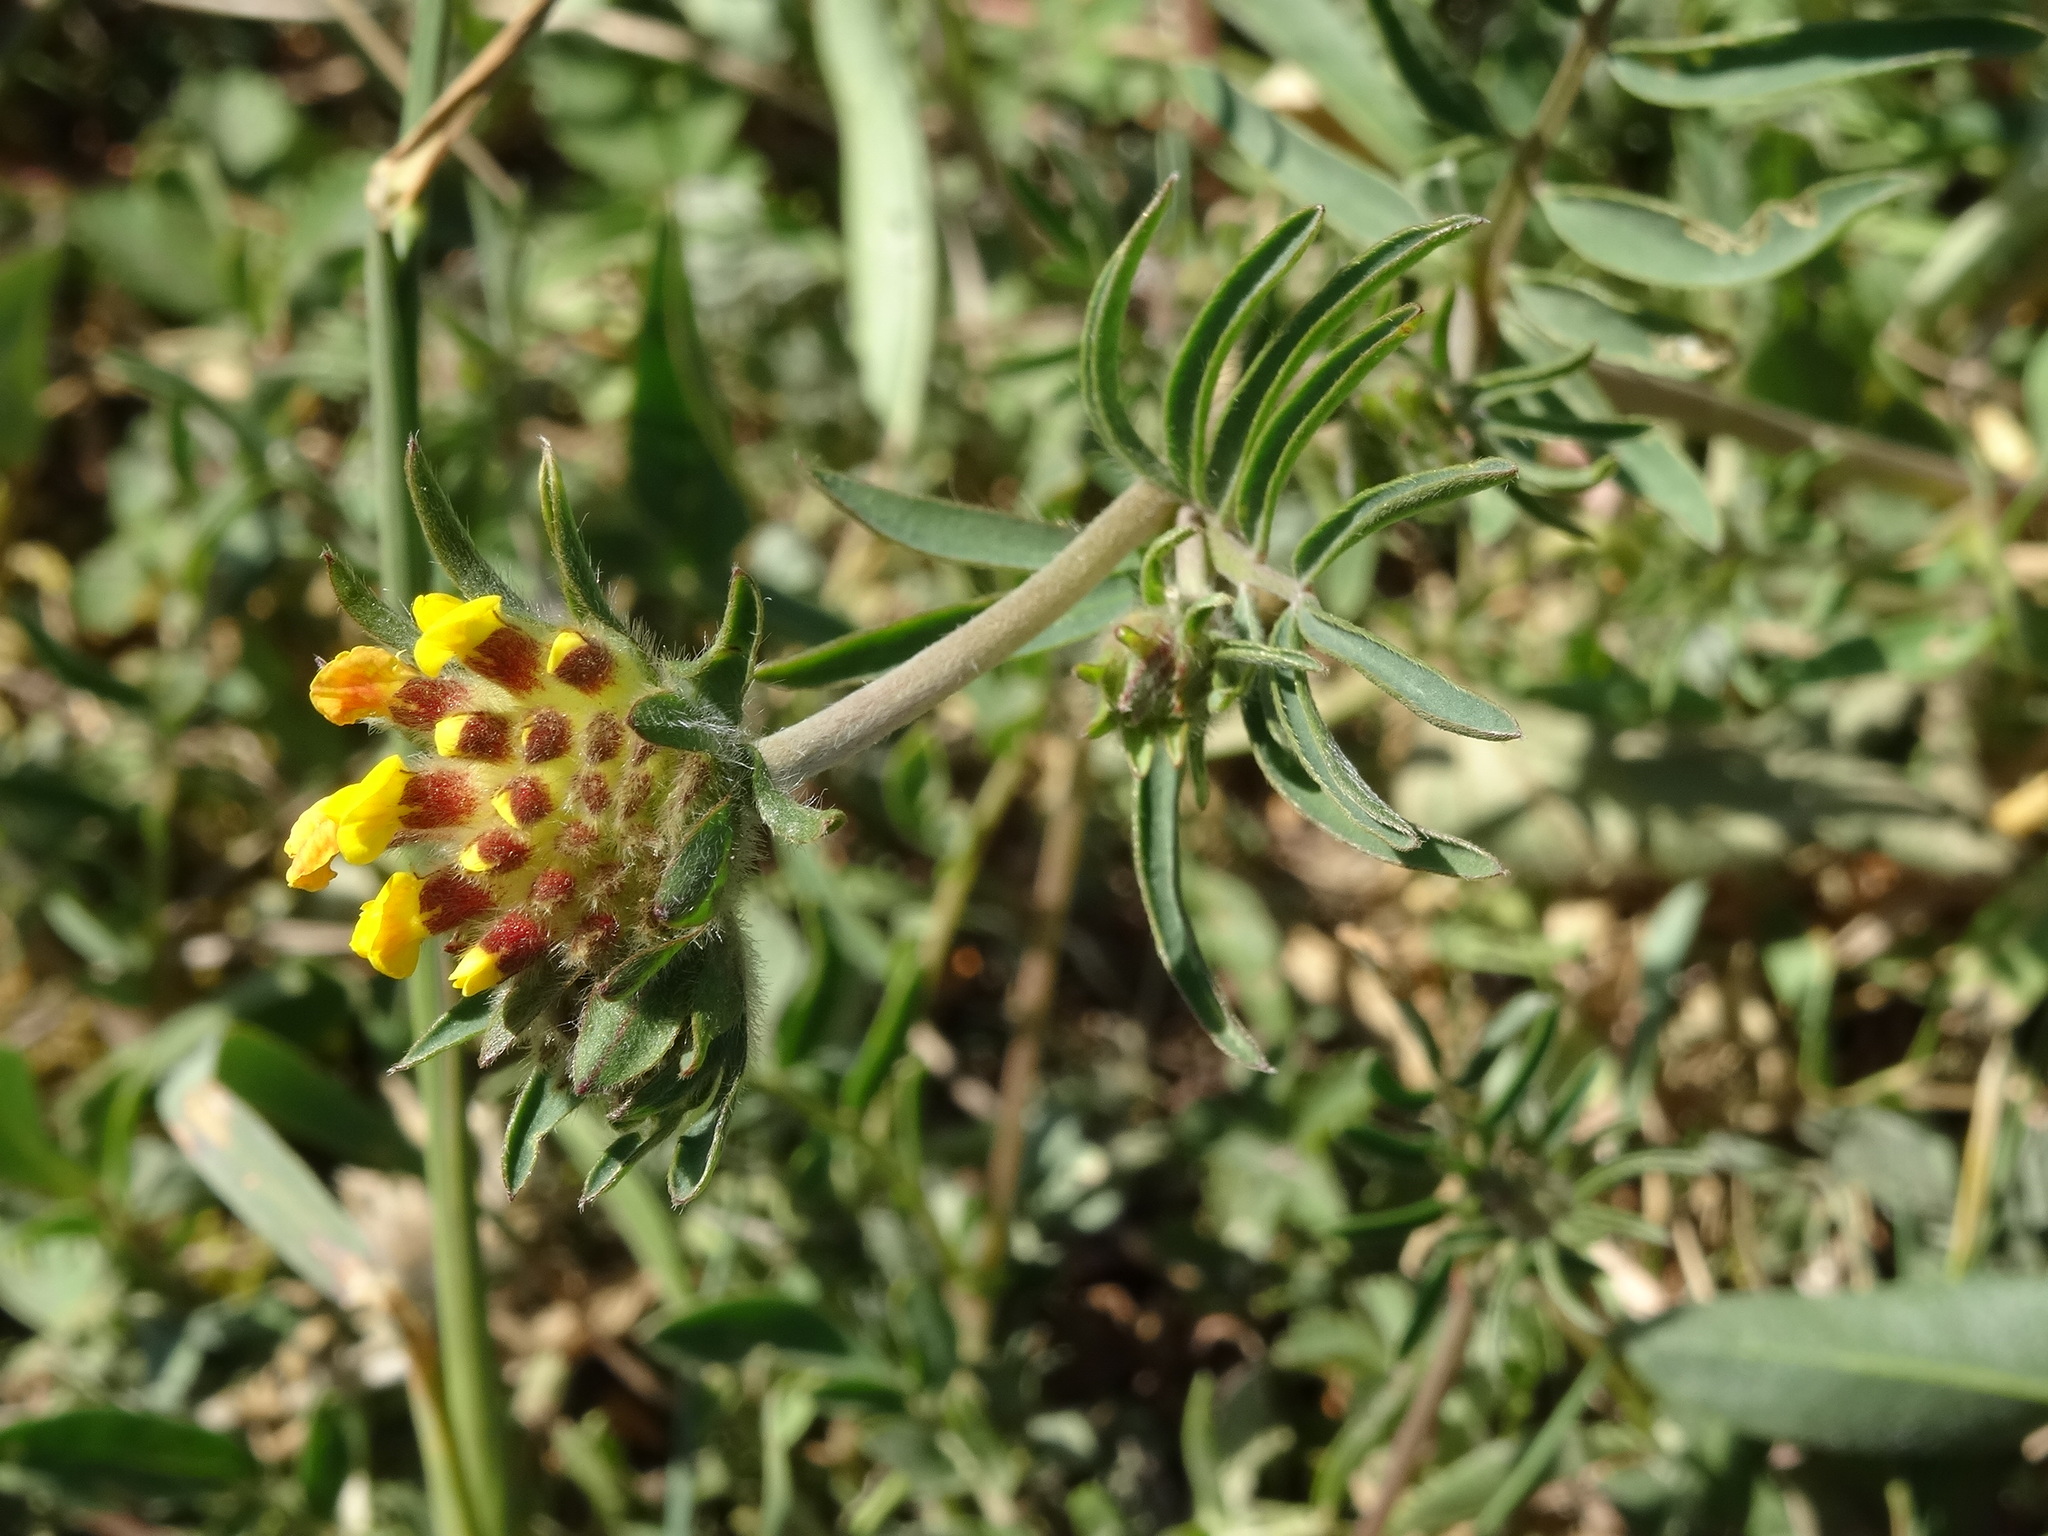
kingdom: Plantae
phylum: Tracheophyta
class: Magnoliopsida
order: Fabales
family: Fabaceae
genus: Anthyllis
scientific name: Anthyllis vulneraria
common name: Kidney vetch
